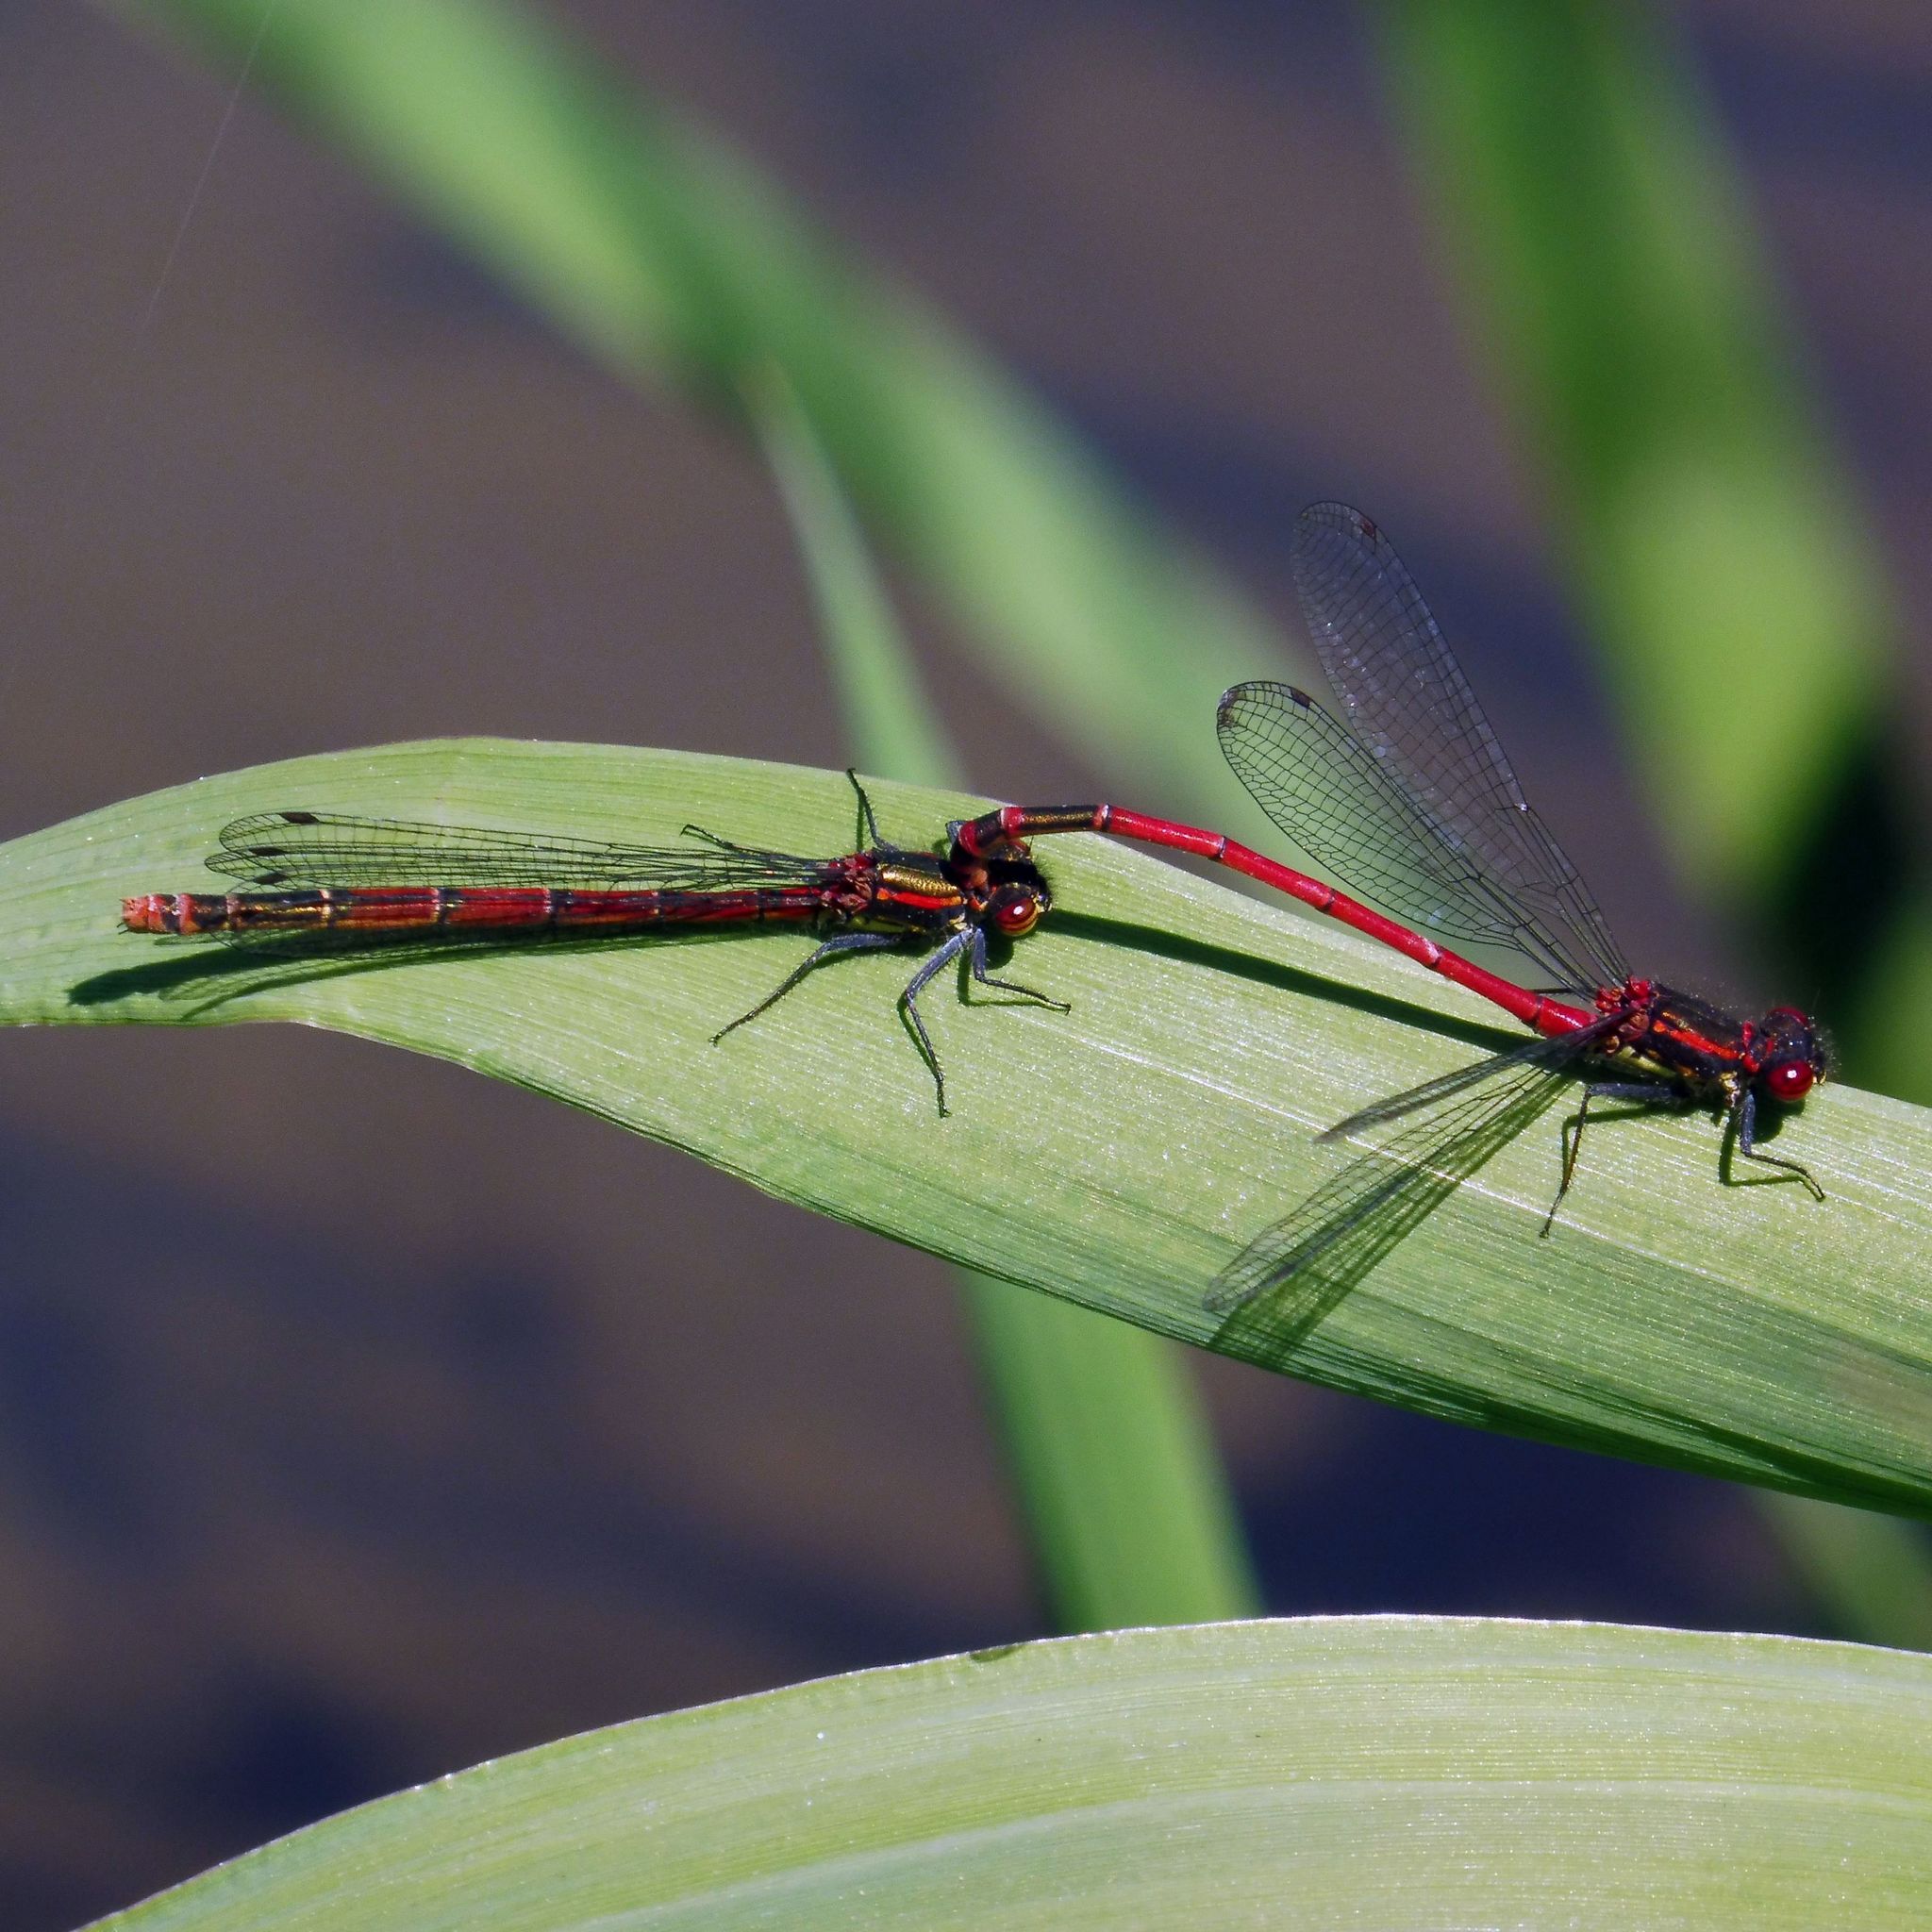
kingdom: Animalia
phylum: Arthropoda
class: Insecta
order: Odonata
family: Coenagrionidae
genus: Pyrrhosoma
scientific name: Pyrrhosoma nymphula
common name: Large red damsel
